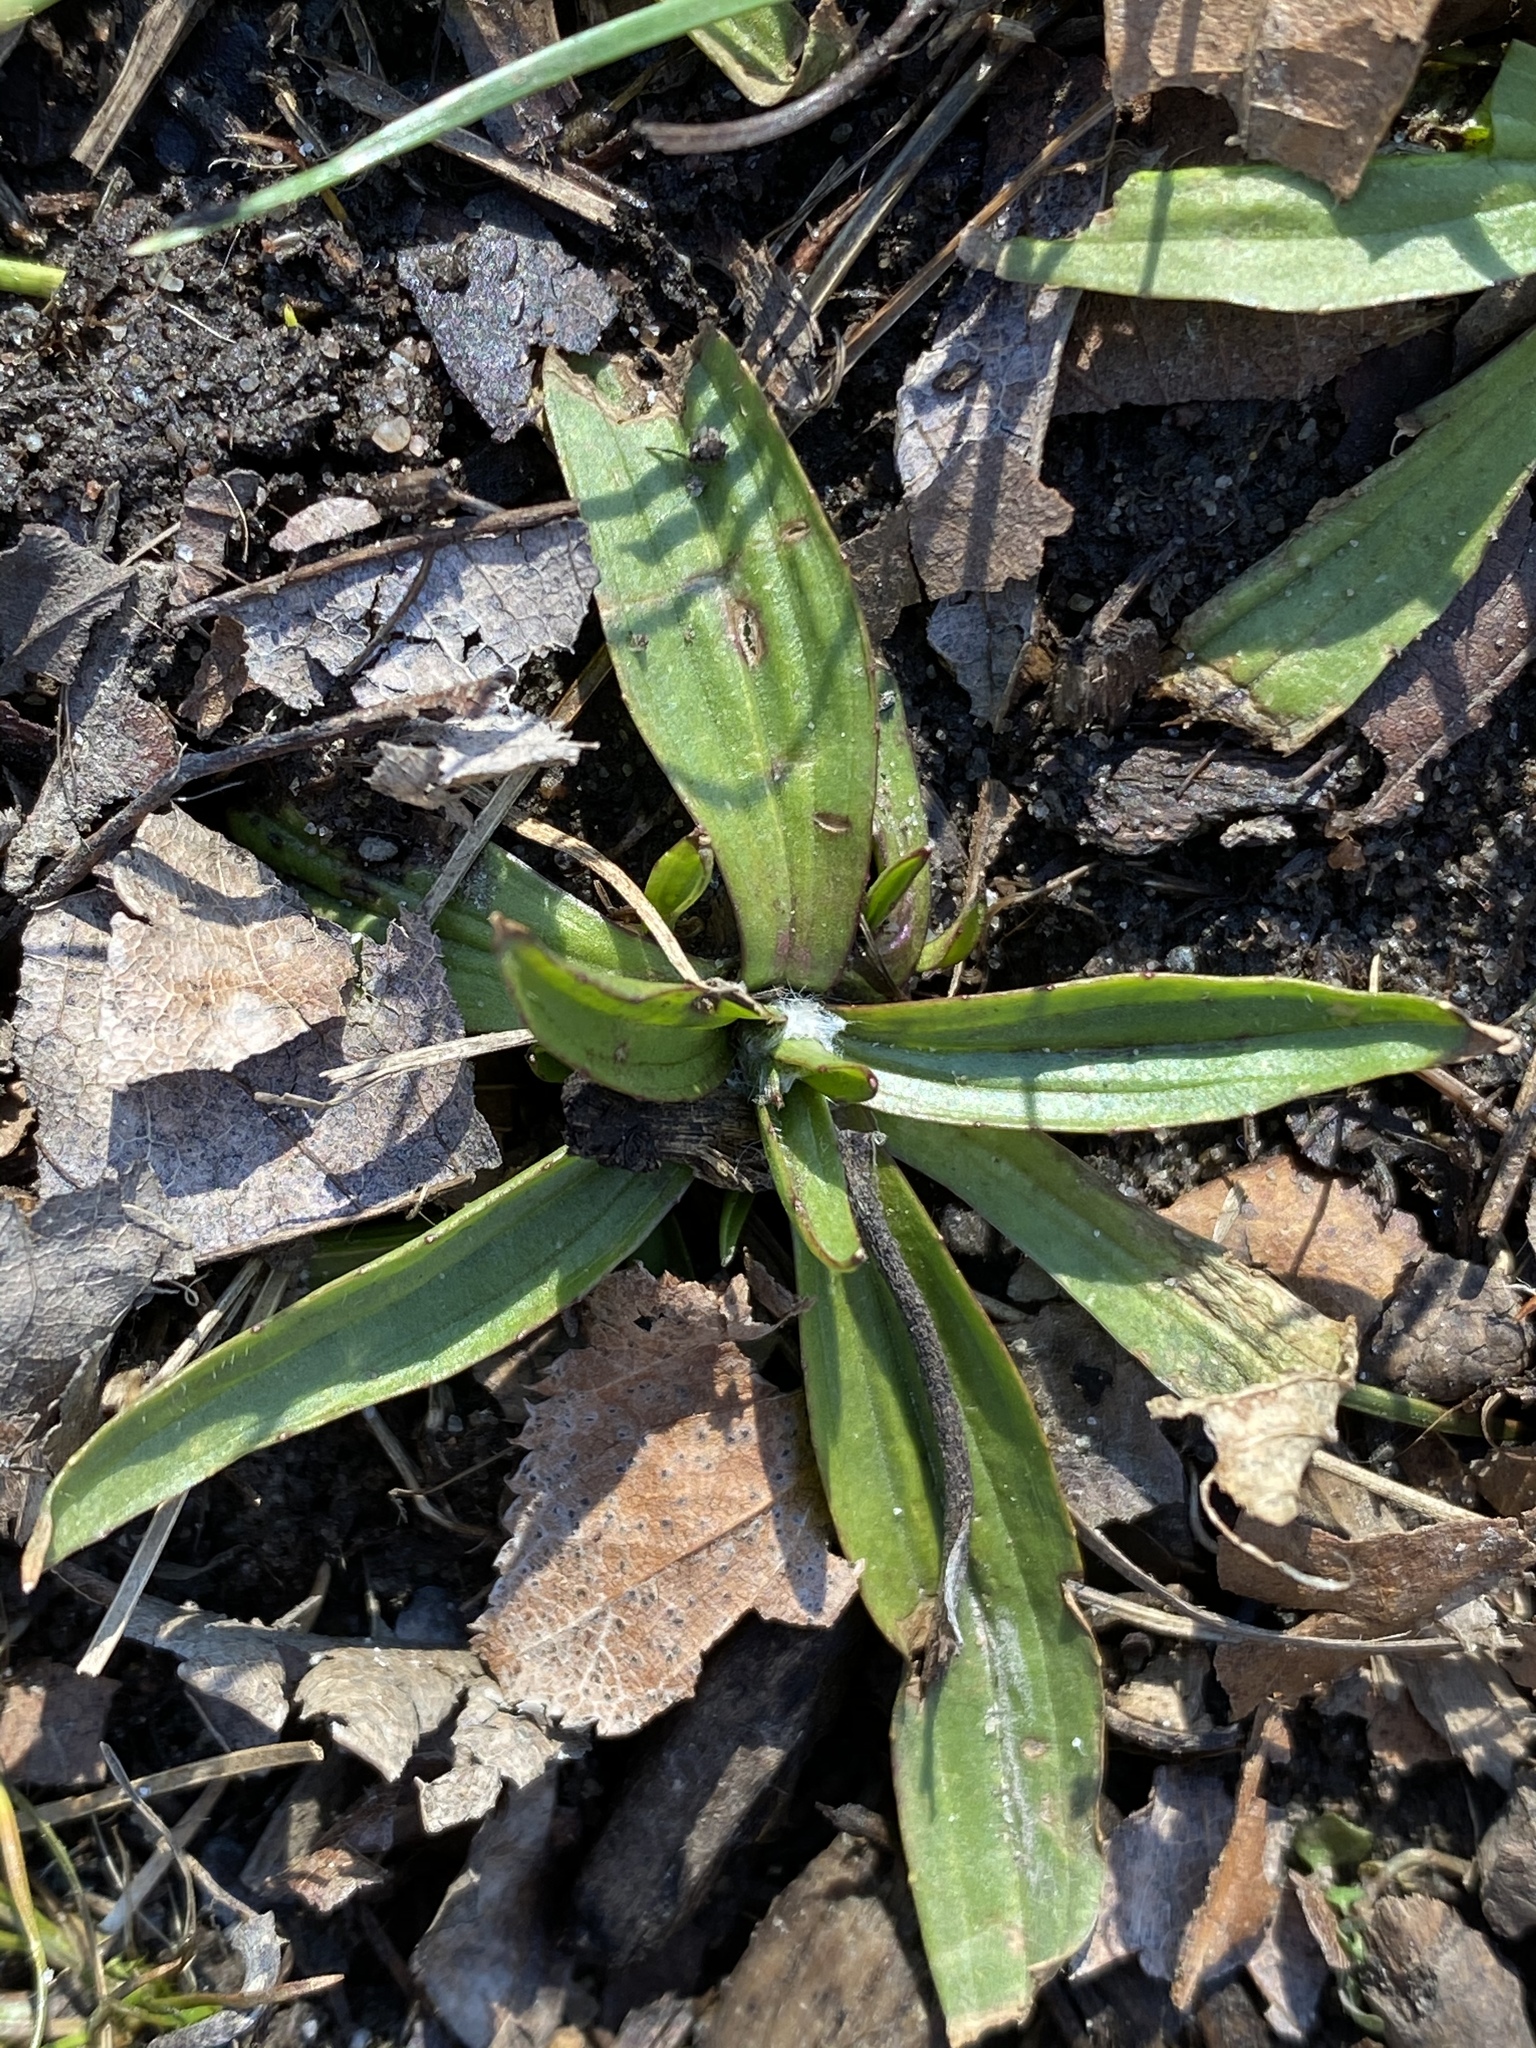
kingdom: Plantae
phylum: Tracheophyta
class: Magnoliopsida
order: Lamiales
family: Plantaginaceae
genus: Plantago
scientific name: Plantago lanceolata
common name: Ribwort plantain
